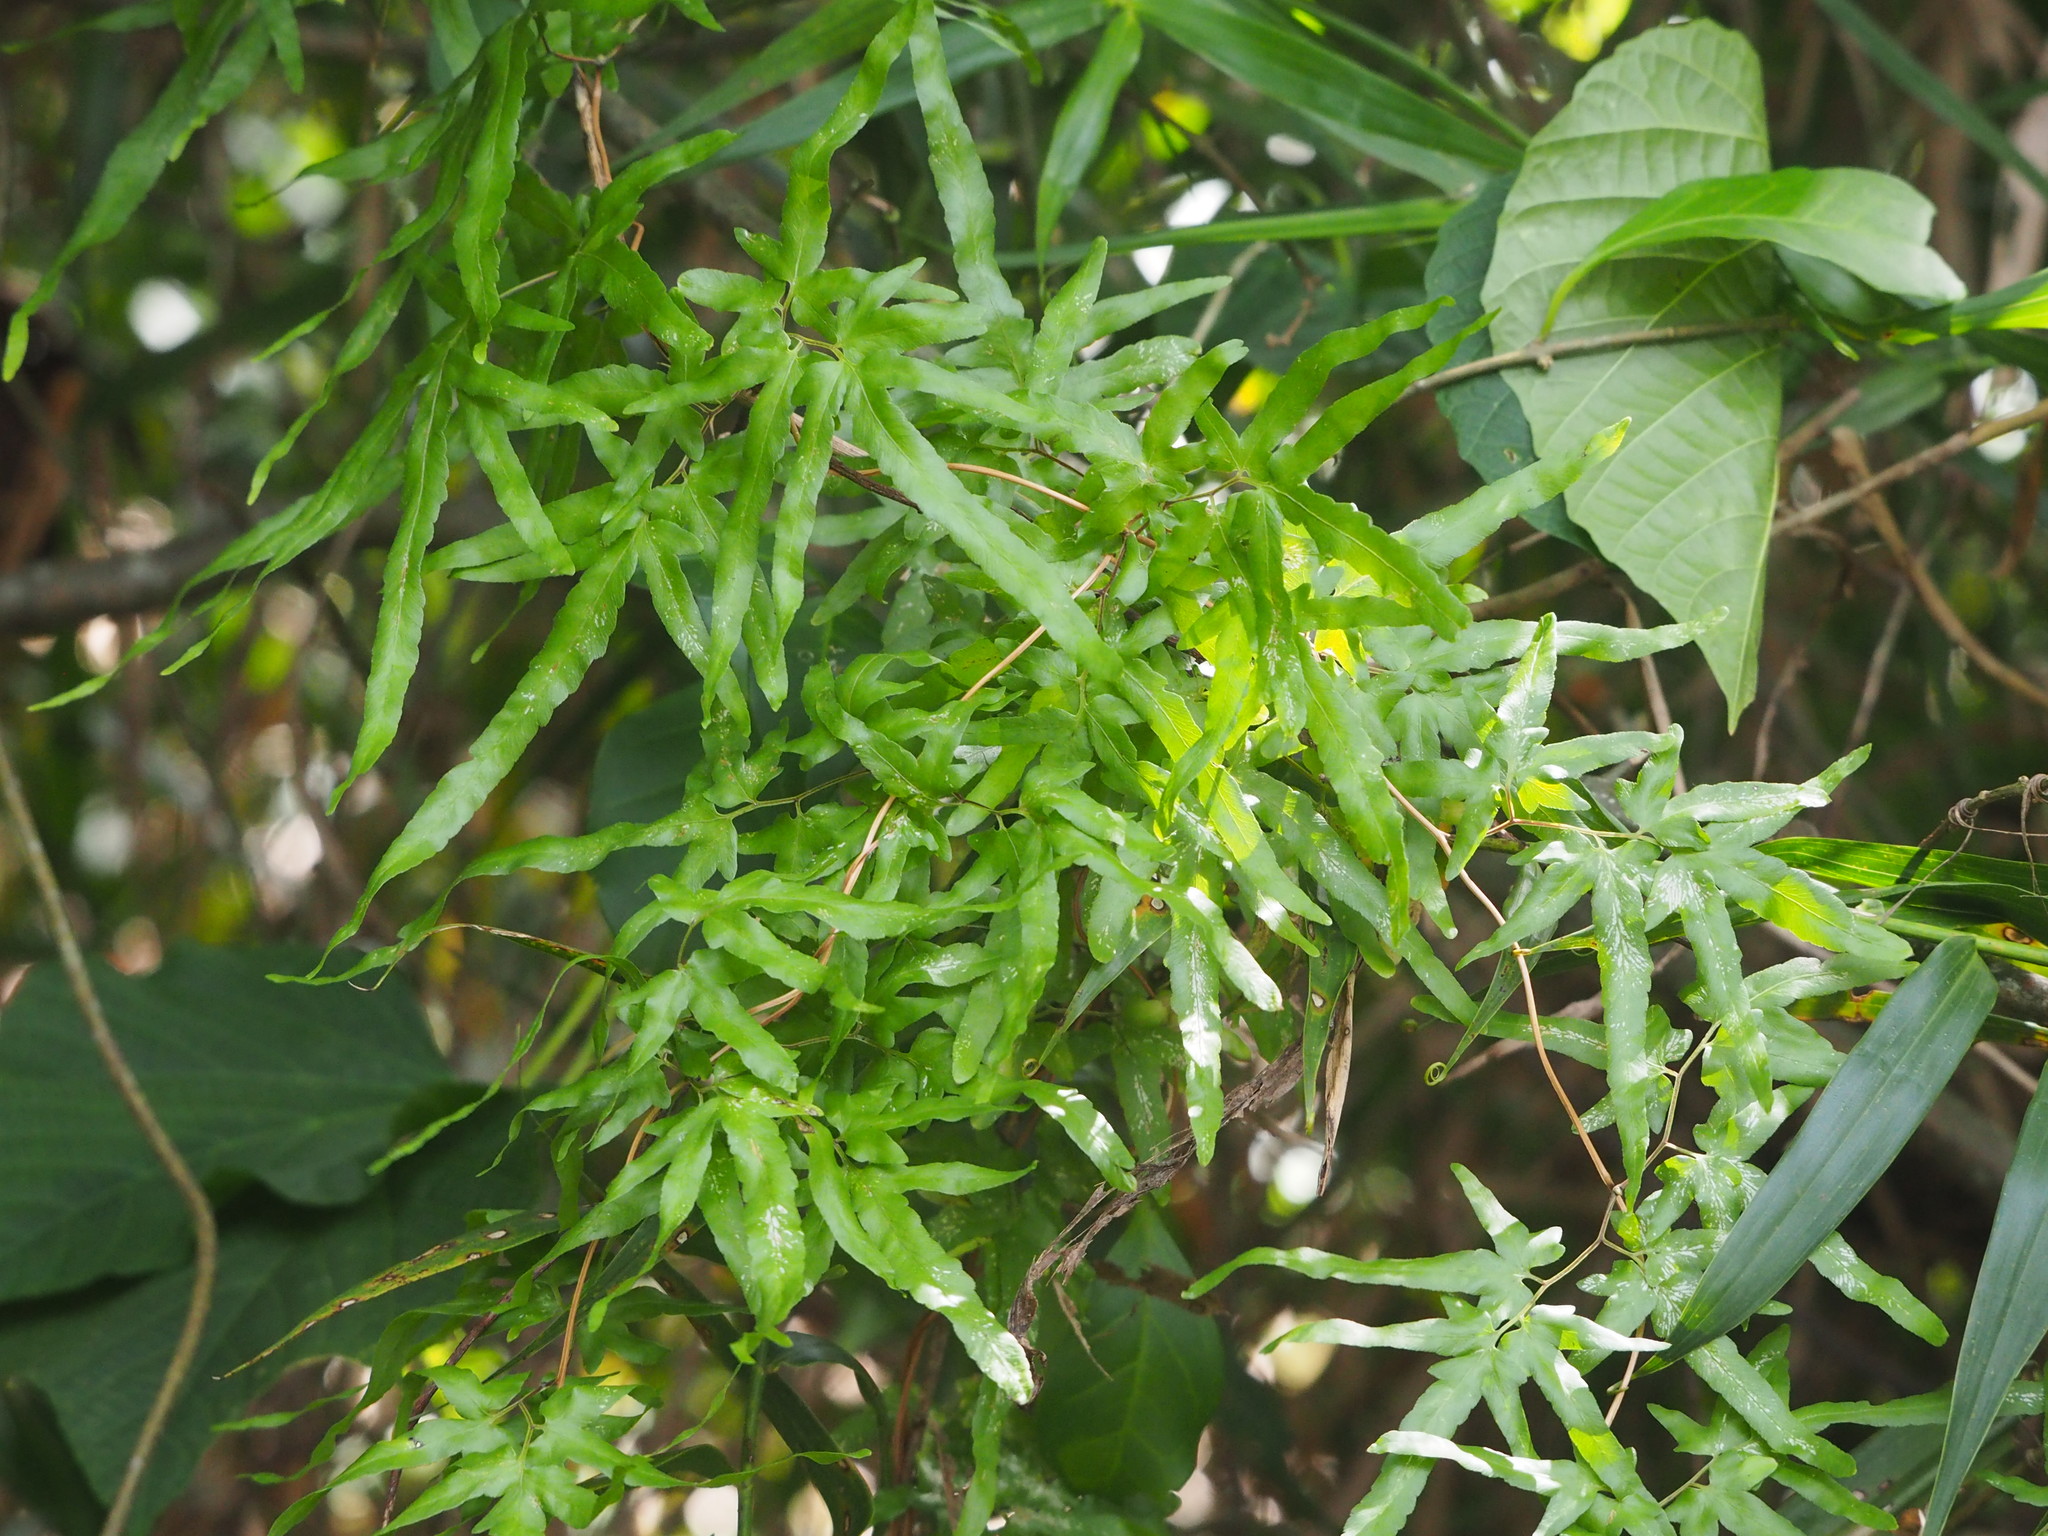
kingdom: Plantae
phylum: Tracheophyta
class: Polypodiopsida
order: Schizaeales
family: Lygodiaceae
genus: Lygodium
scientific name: Lygodium japonicum
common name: Japanese climbing fern
